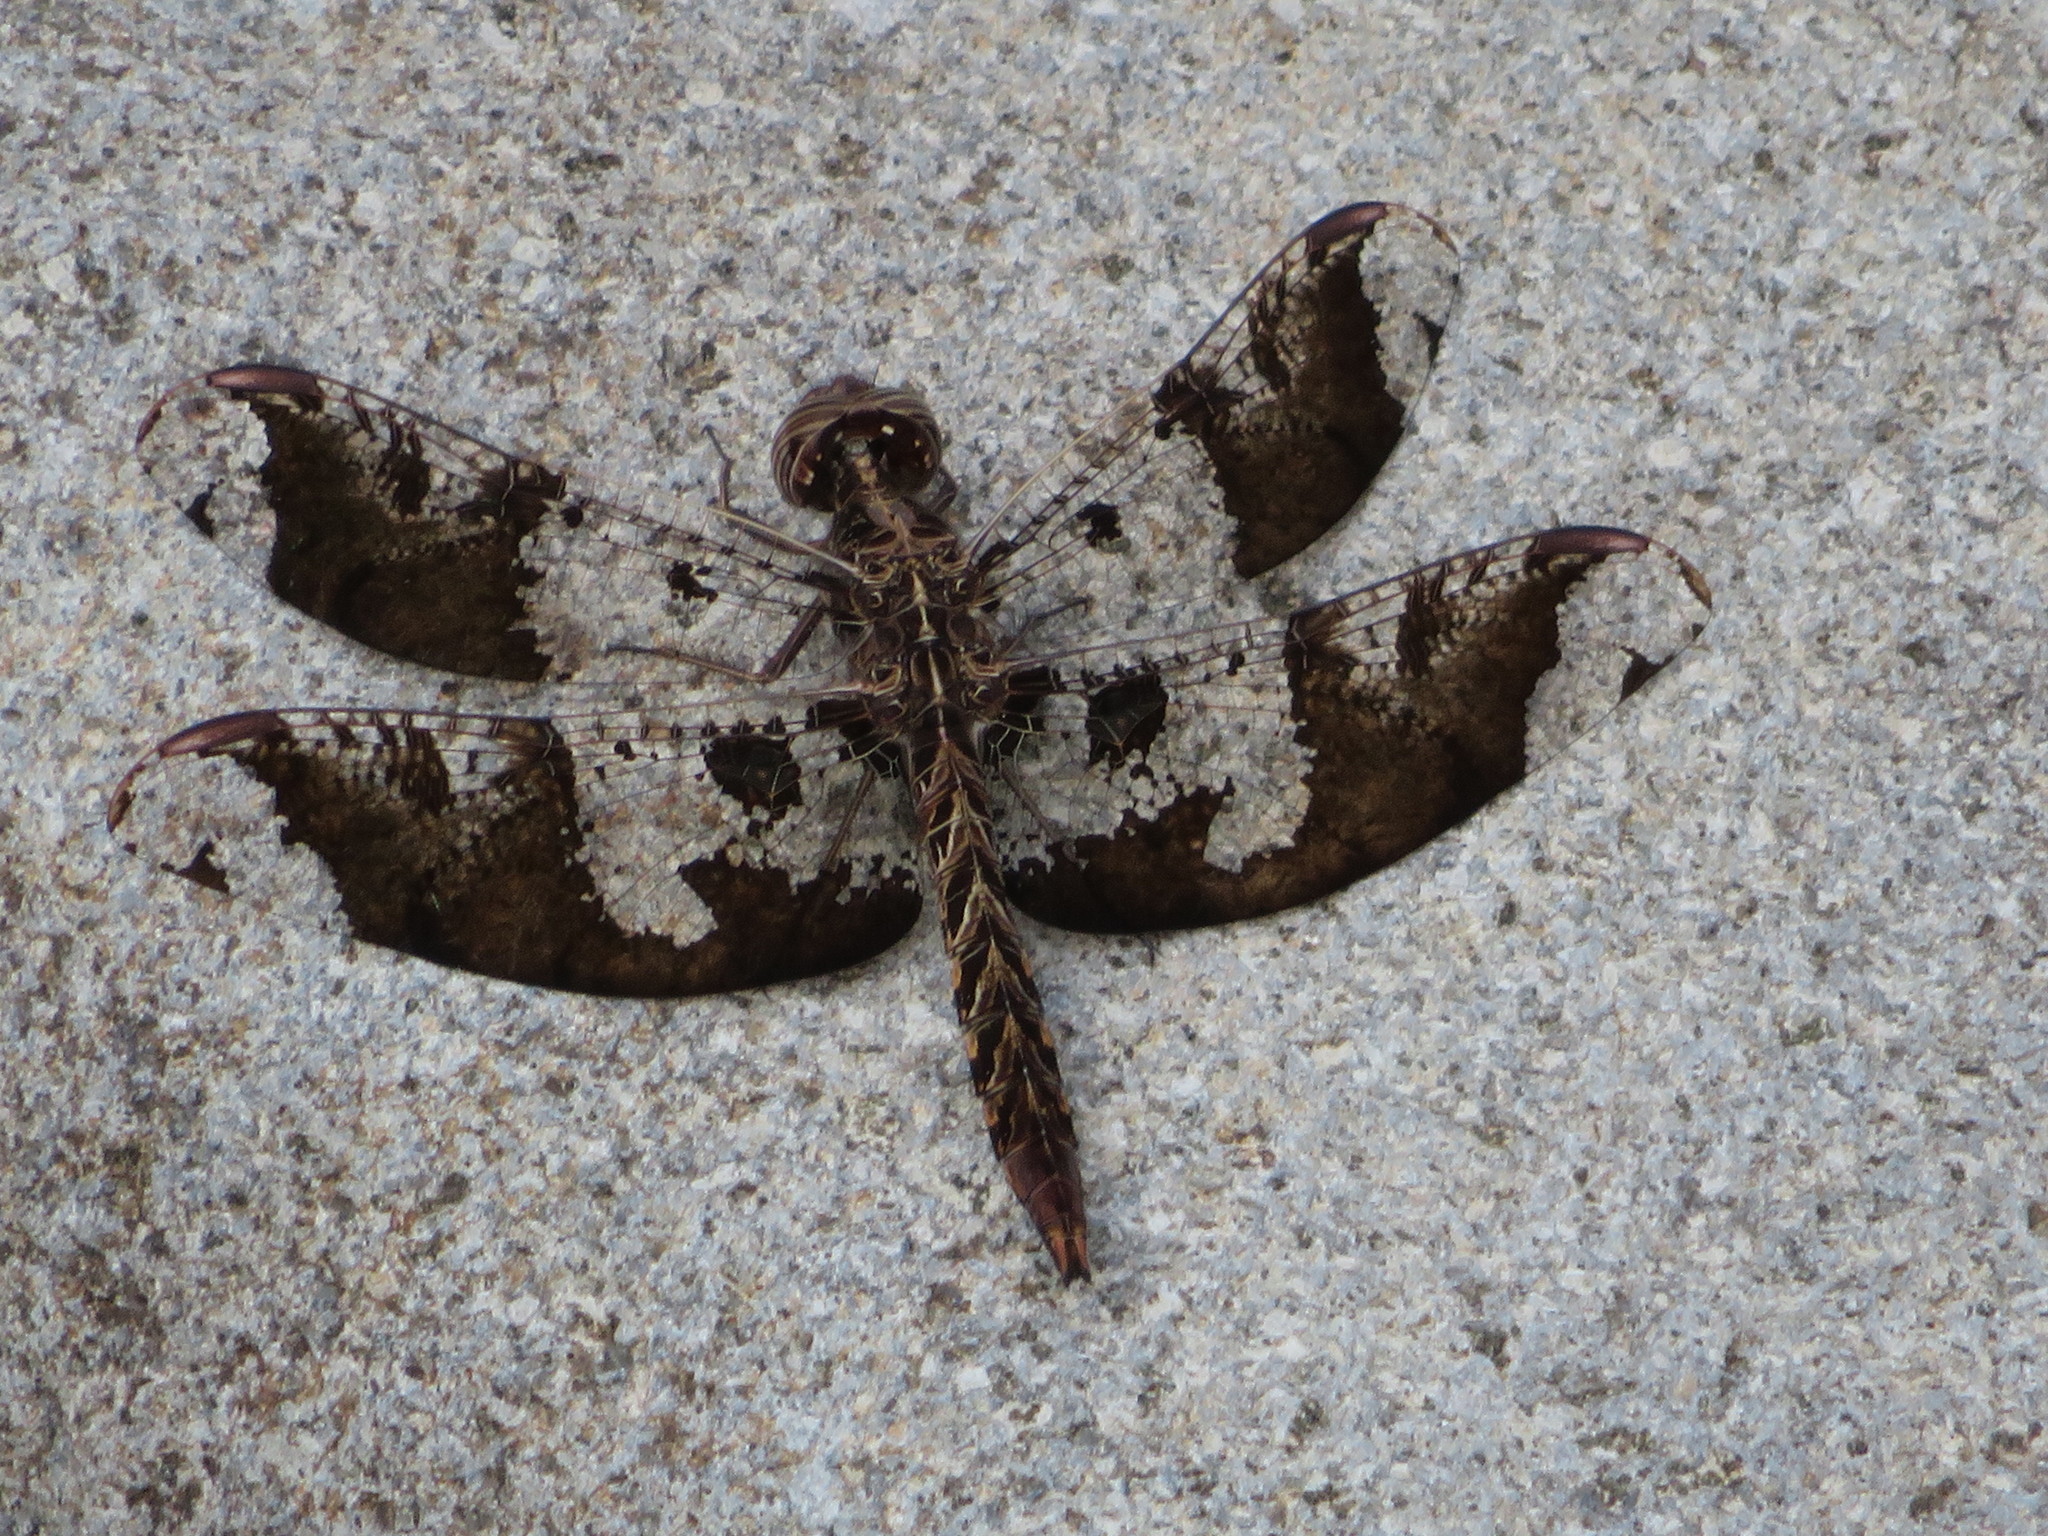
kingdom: Animalia
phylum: Arthropoda
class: Insecta
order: Odonata
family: Libellulidae
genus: Pseudoleon
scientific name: Pseudoleon superbus
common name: Filigree skimmer
